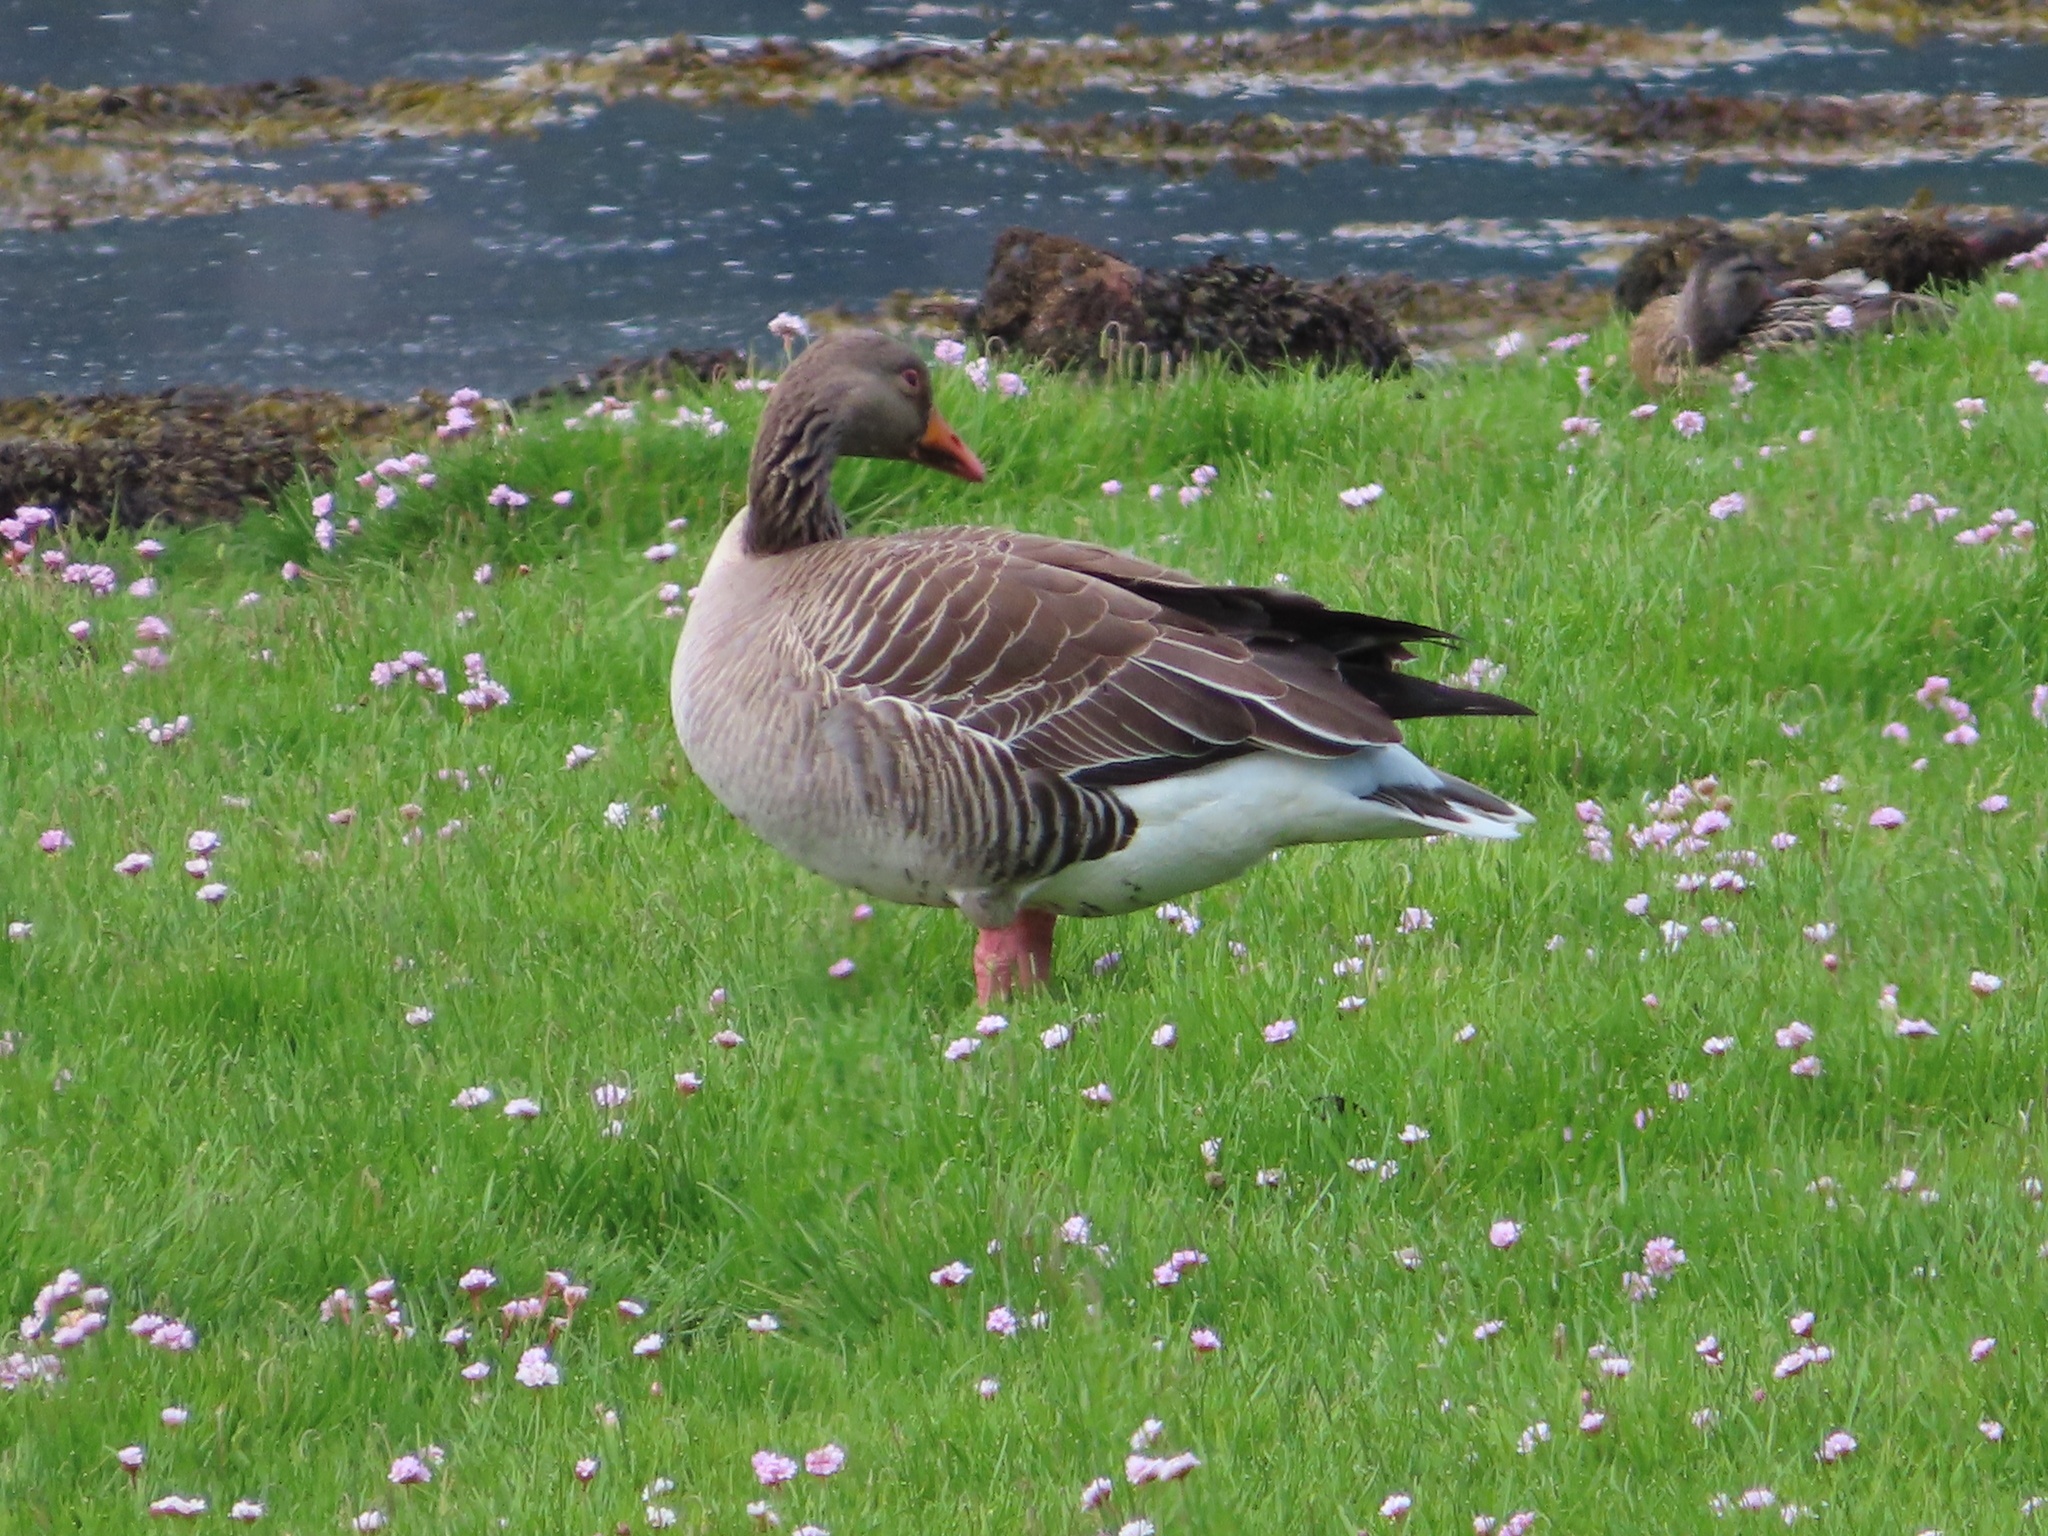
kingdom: Animalia
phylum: Chordata
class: Aves
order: Anseriformes
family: Anatidae
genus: Anser
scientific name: Anser anser
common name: Greylag goose
